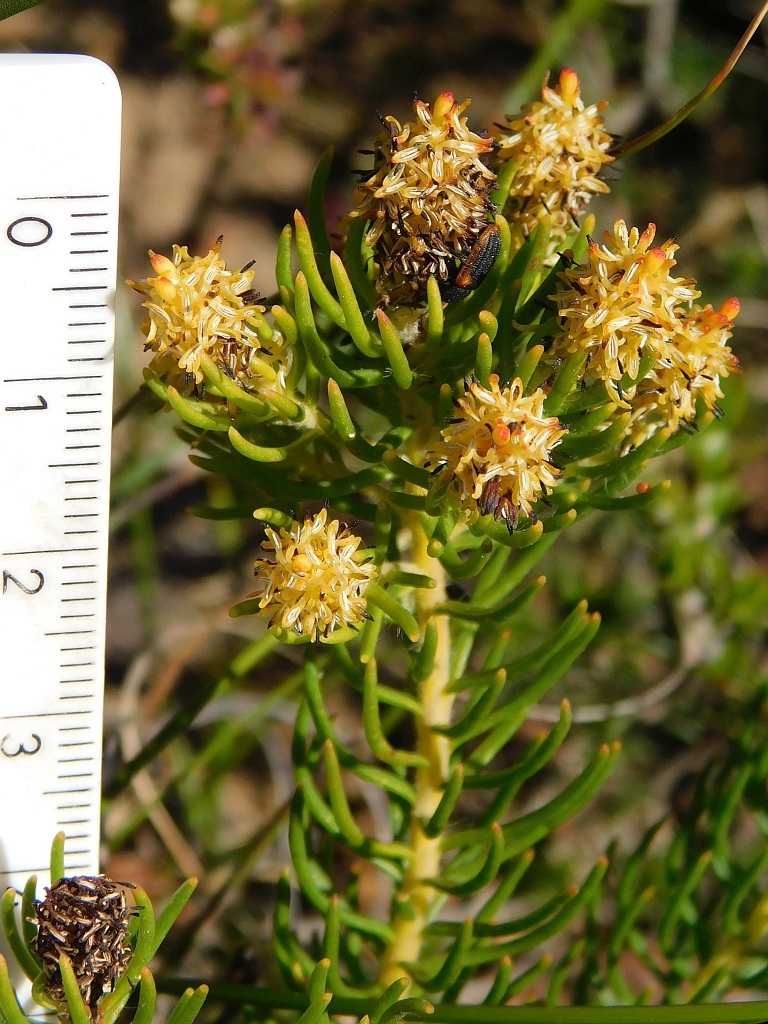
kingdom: Plantae
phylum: Tracheophyta
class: Magnoliopsida
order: Proteales
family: Proteaceae
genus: Leucadendron
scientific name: Leucadendron teretifolium
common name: Needle-leaf conebush
